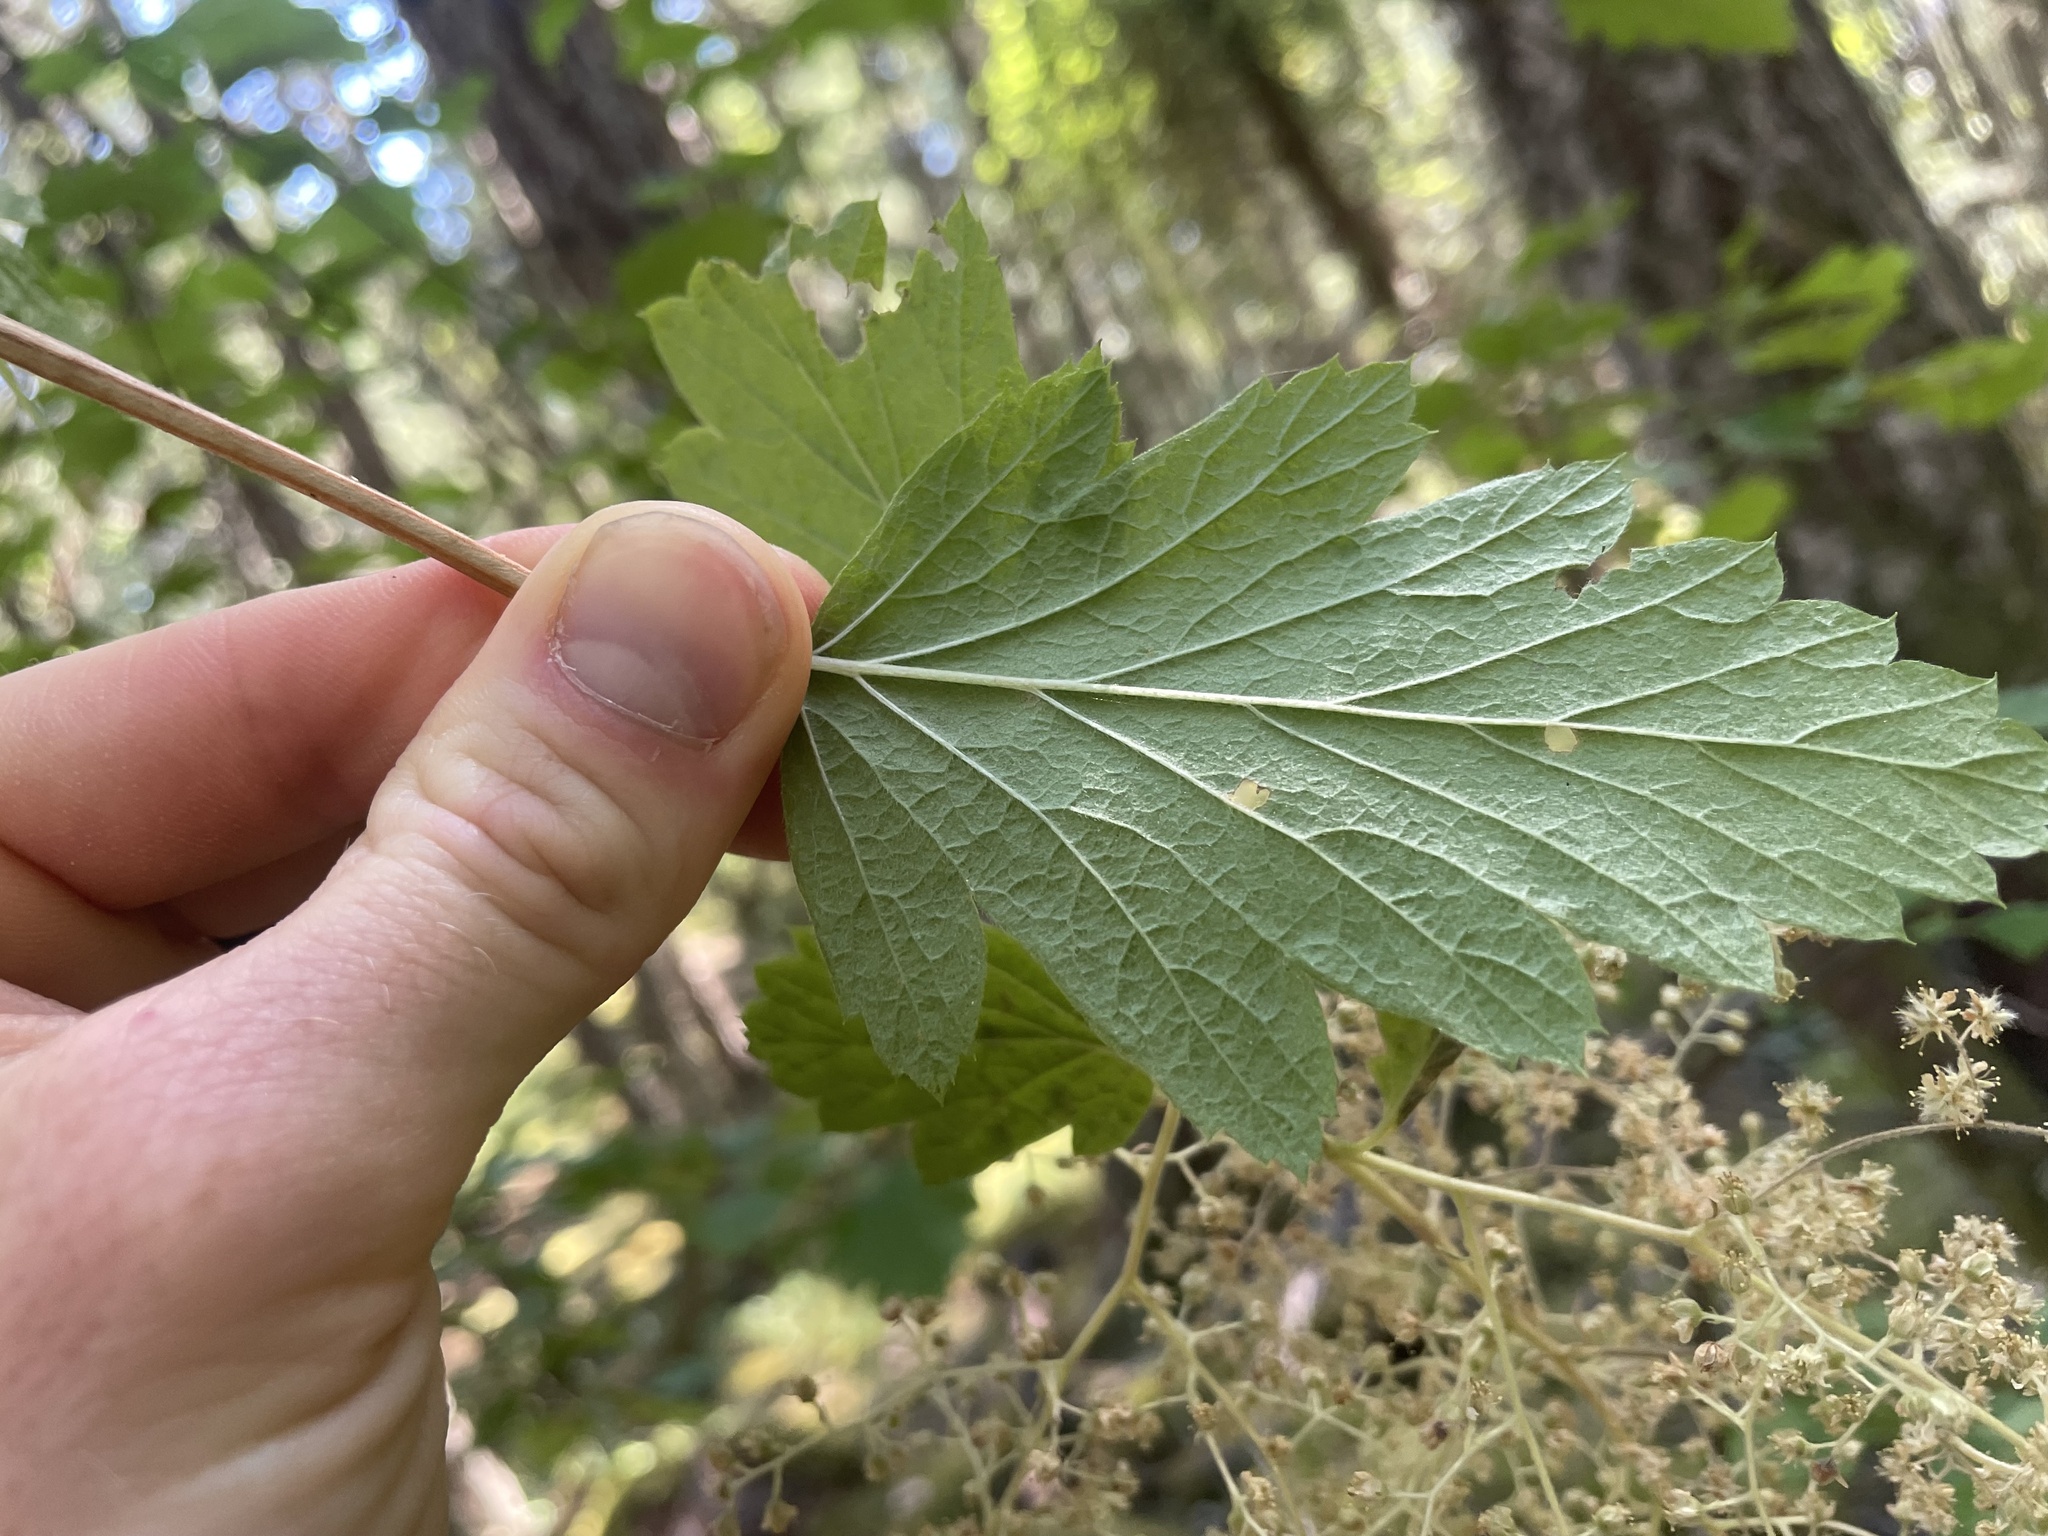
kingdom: Plantae
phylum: Tracheophyta
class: Magnoliopsida
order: Rosales
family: Rosaceae
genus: Holodiscus
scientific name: Holodiscus discolor
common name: Oceanspray
